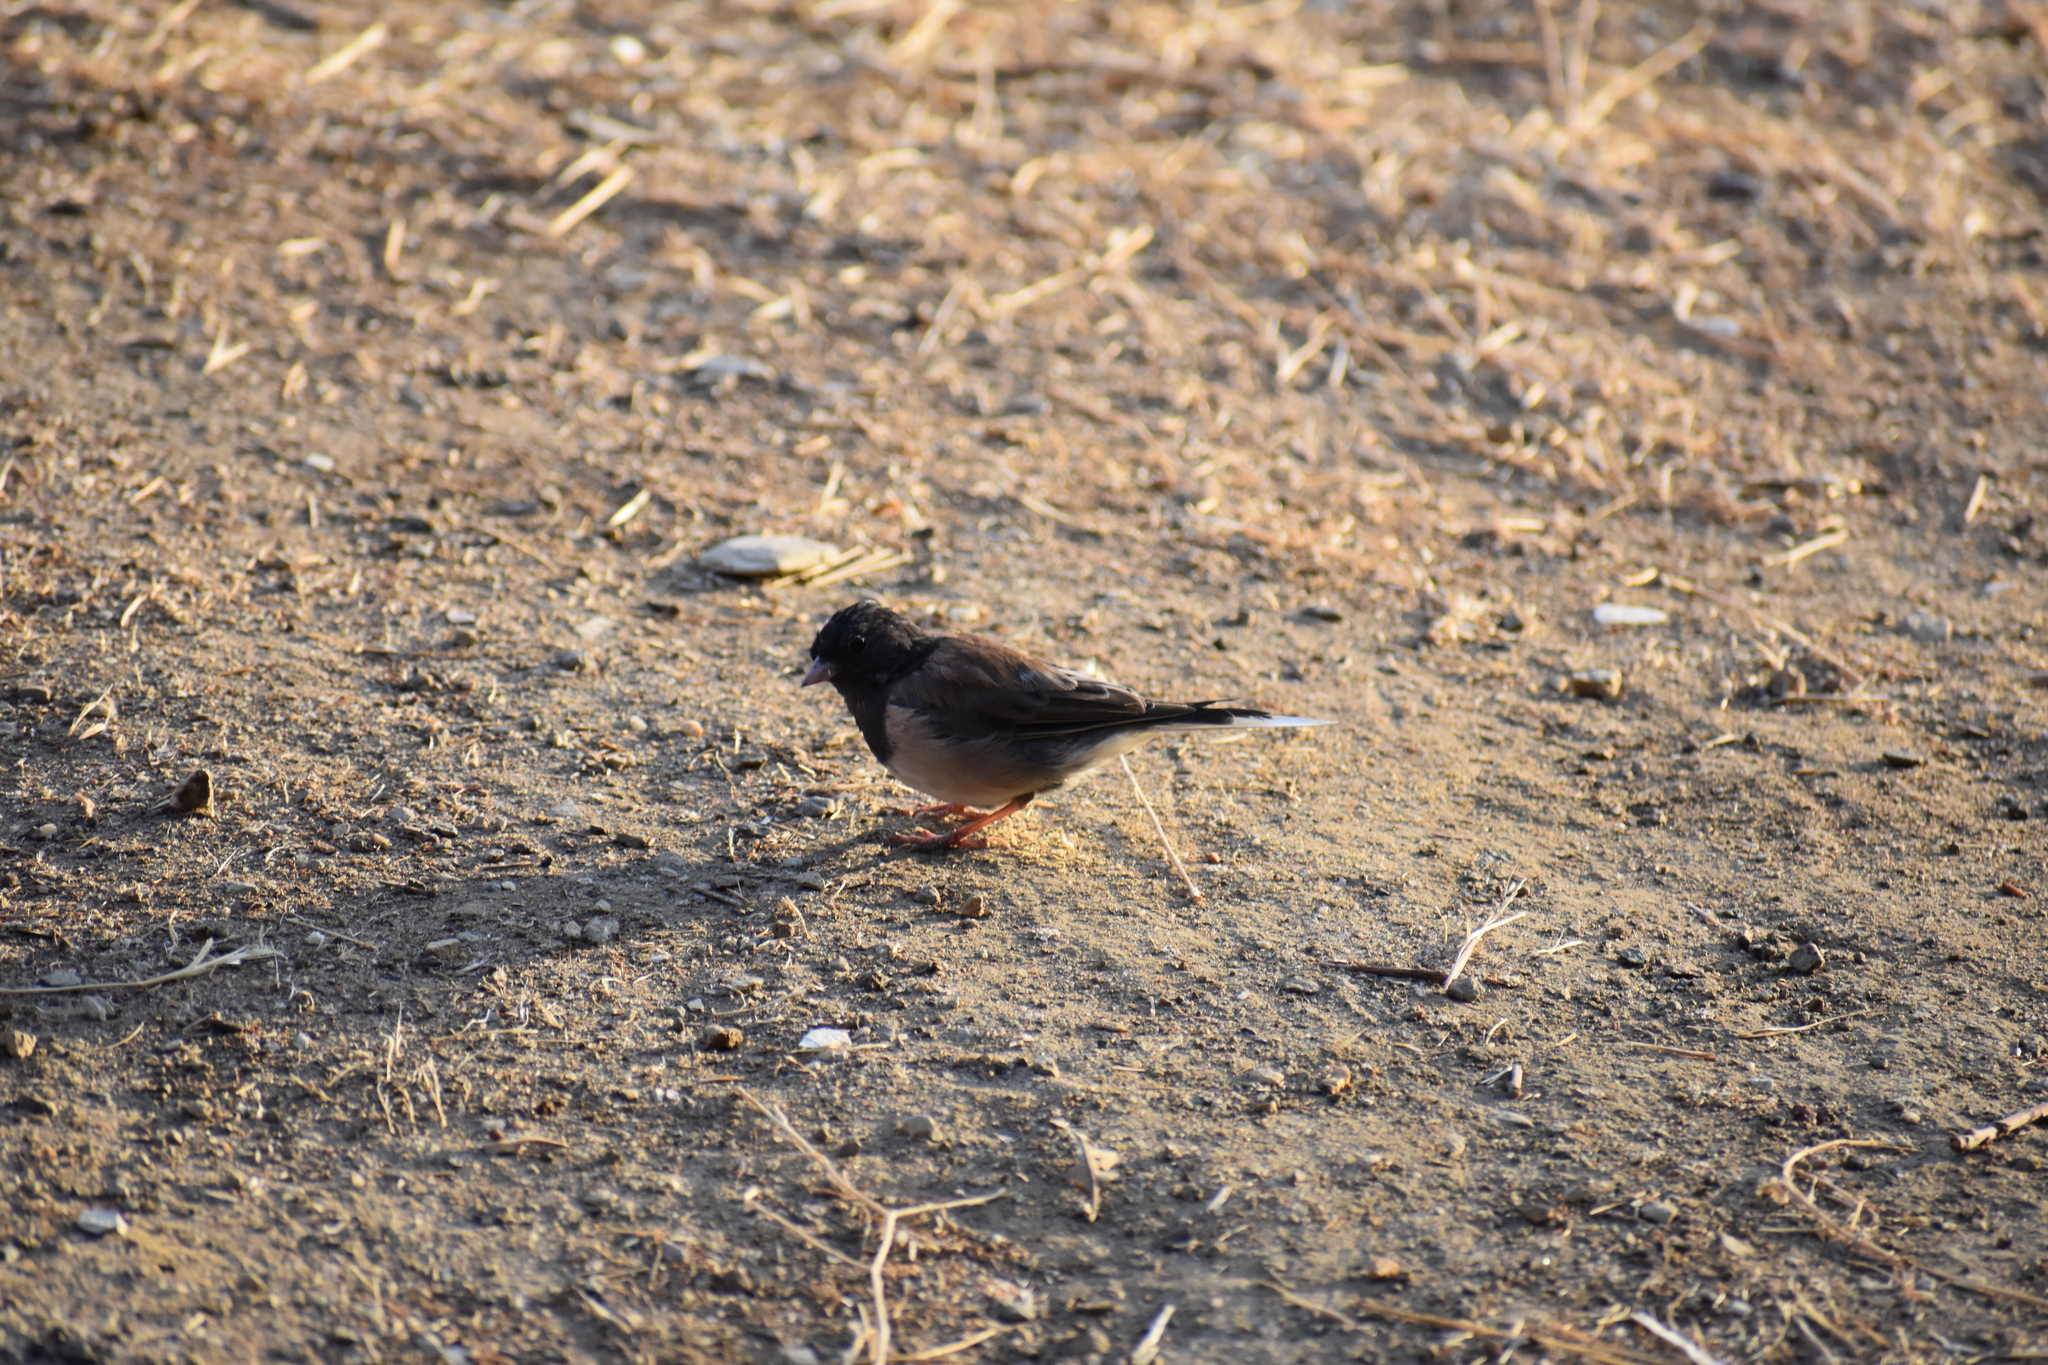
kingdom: Animalia
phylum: Chordata
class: Aves
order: Passeriformes
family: Passerellidae
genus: Junco
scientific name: Junco hyemalis
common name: Dark-eyed junco
